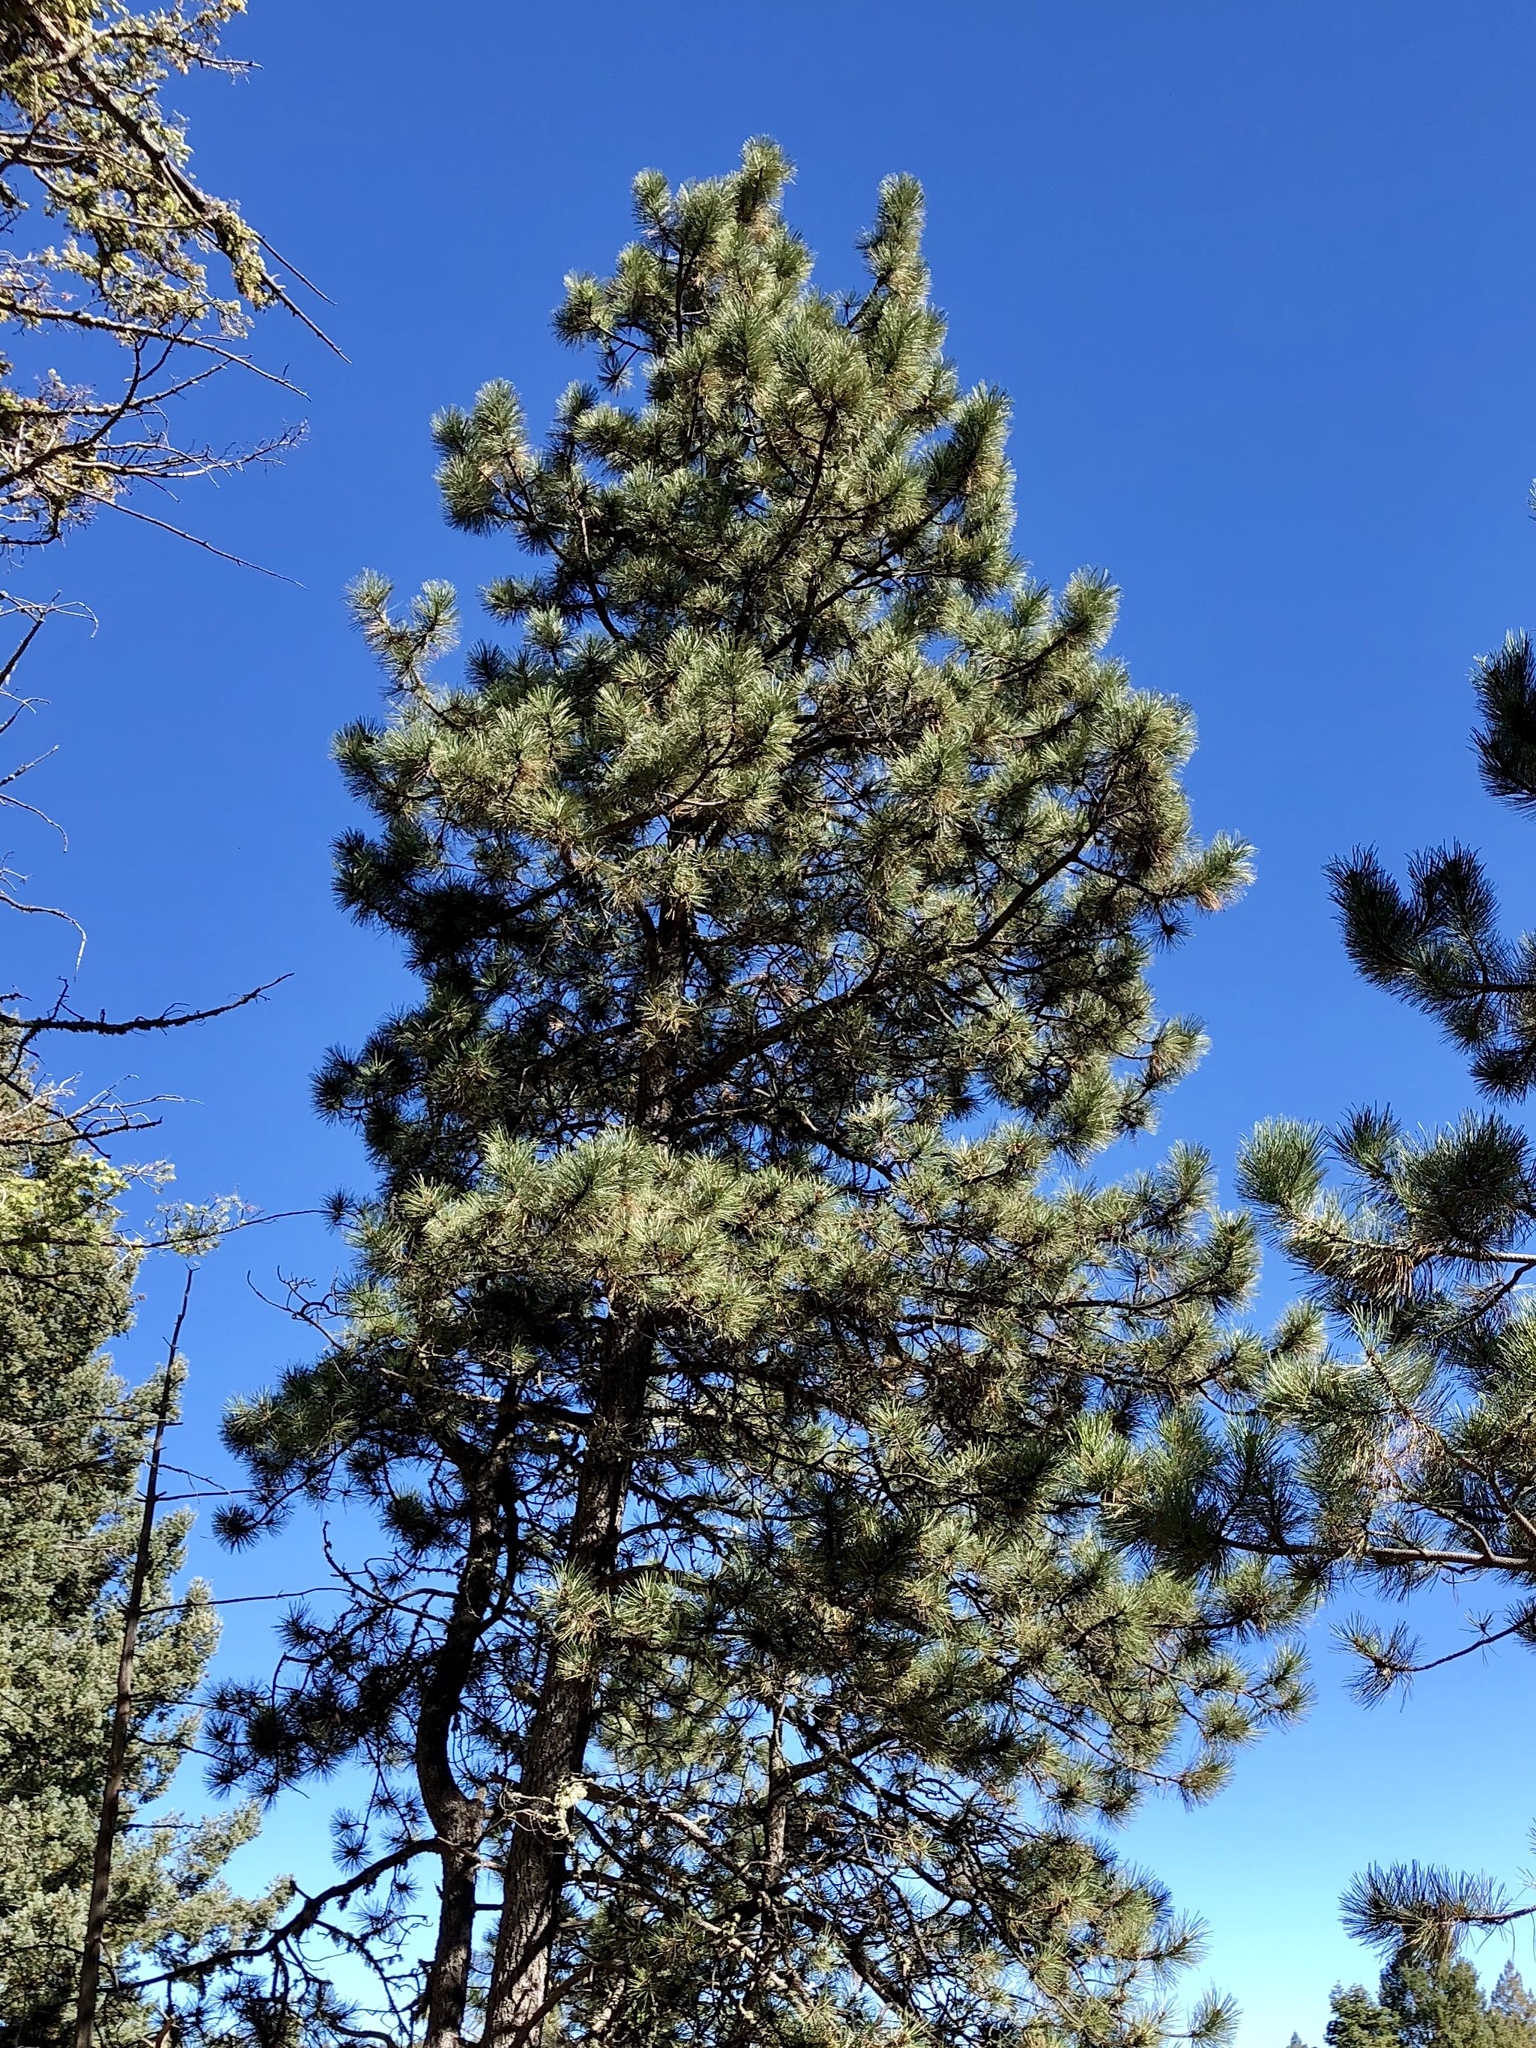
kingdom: Plantae
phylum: Tracheophyta
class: Pinopsida
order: Pinales
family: Pinaceae
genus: Pinus
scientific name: Pinus ponderosa
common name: Western yellow-pine
